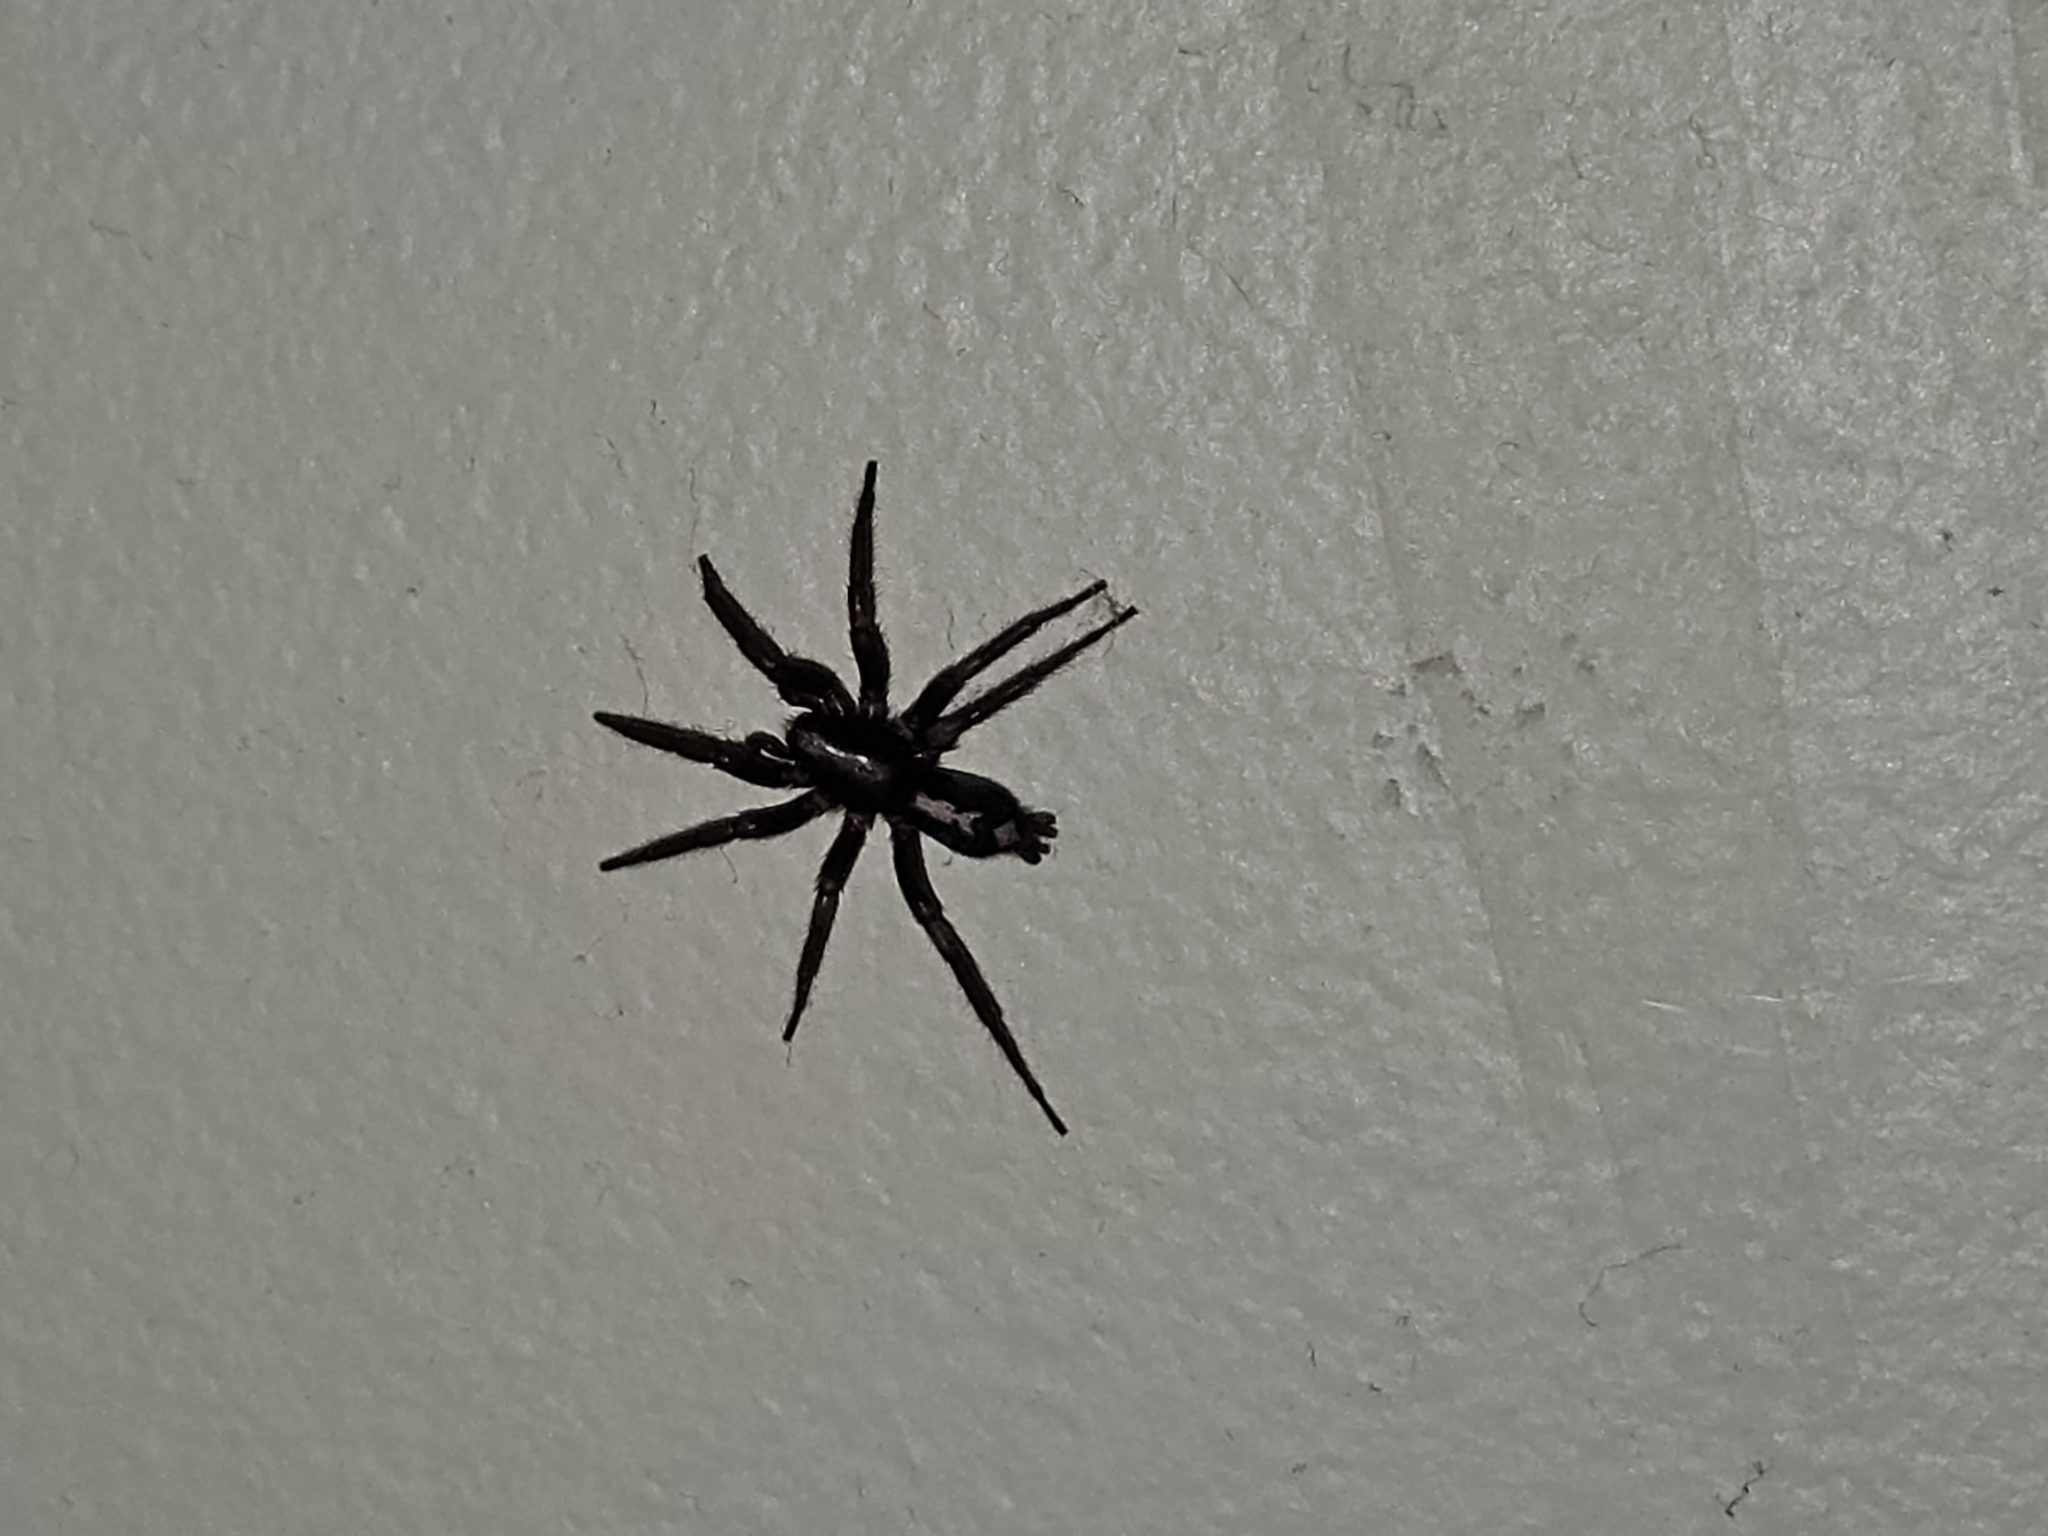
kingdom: Animalia
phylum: Arthropoda
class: Arachnida
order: Araneae
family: Gnaphosidae
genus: Herpyllus
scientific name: Herpyllus ecclesiasticus
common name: Eastern parson spider
